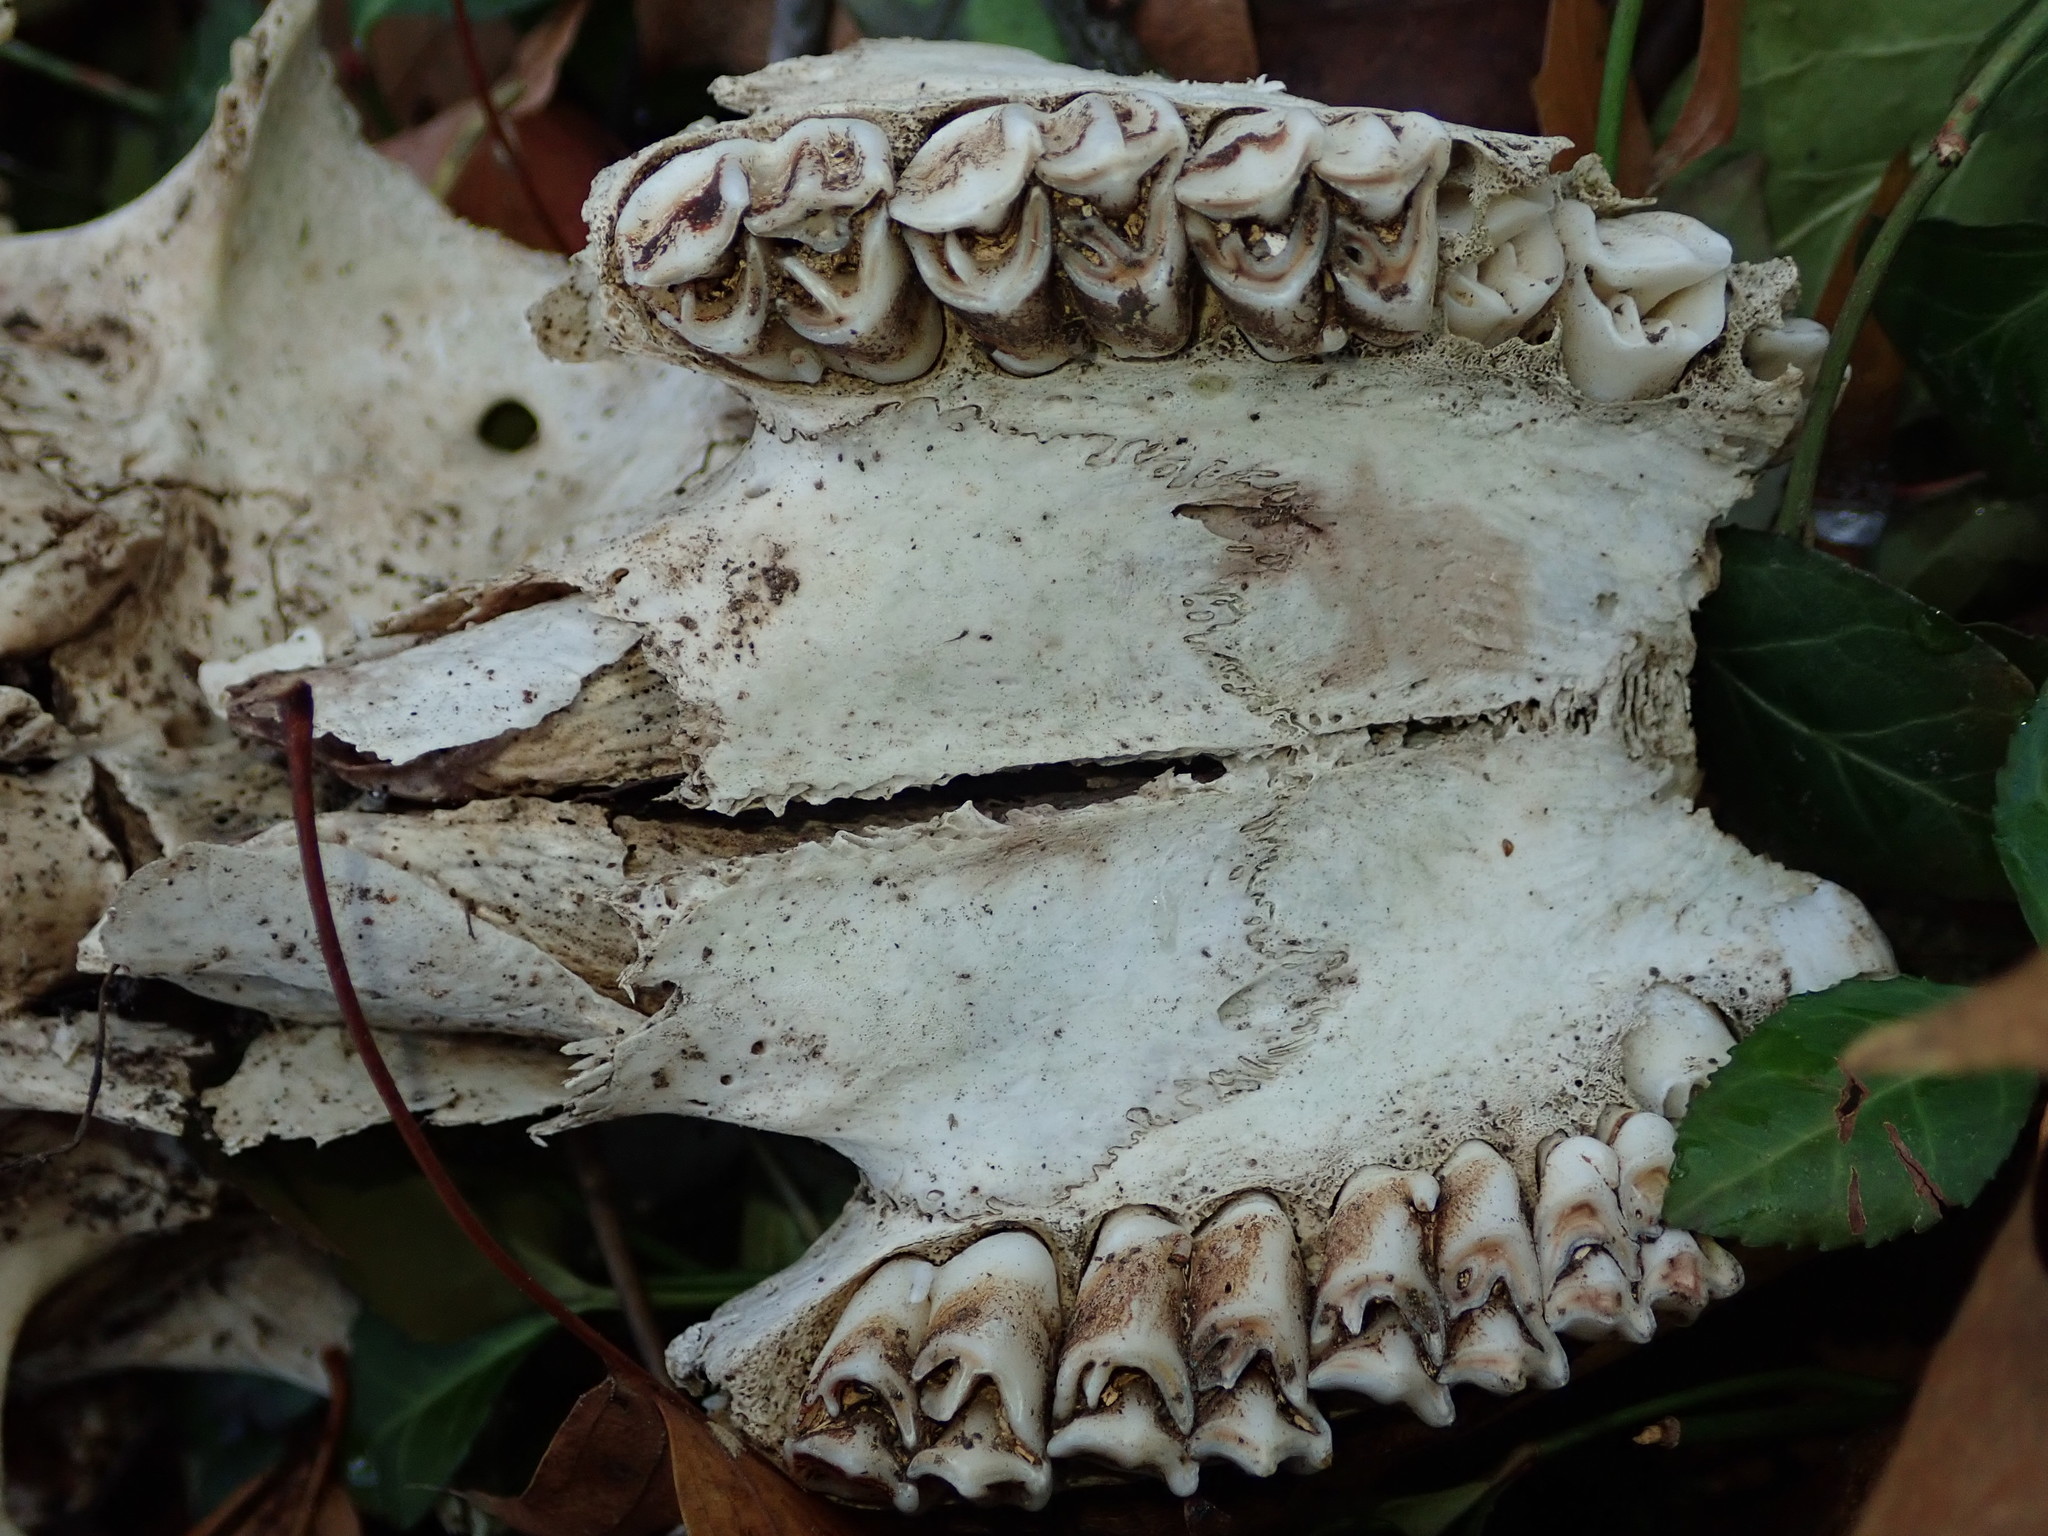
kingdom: Animalia
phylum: Chordata
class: Mammalia
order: Artiodactyla
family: Cervidae
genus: Odocoileus
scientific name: Odocoileus virginianus
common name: White-tailed deer
